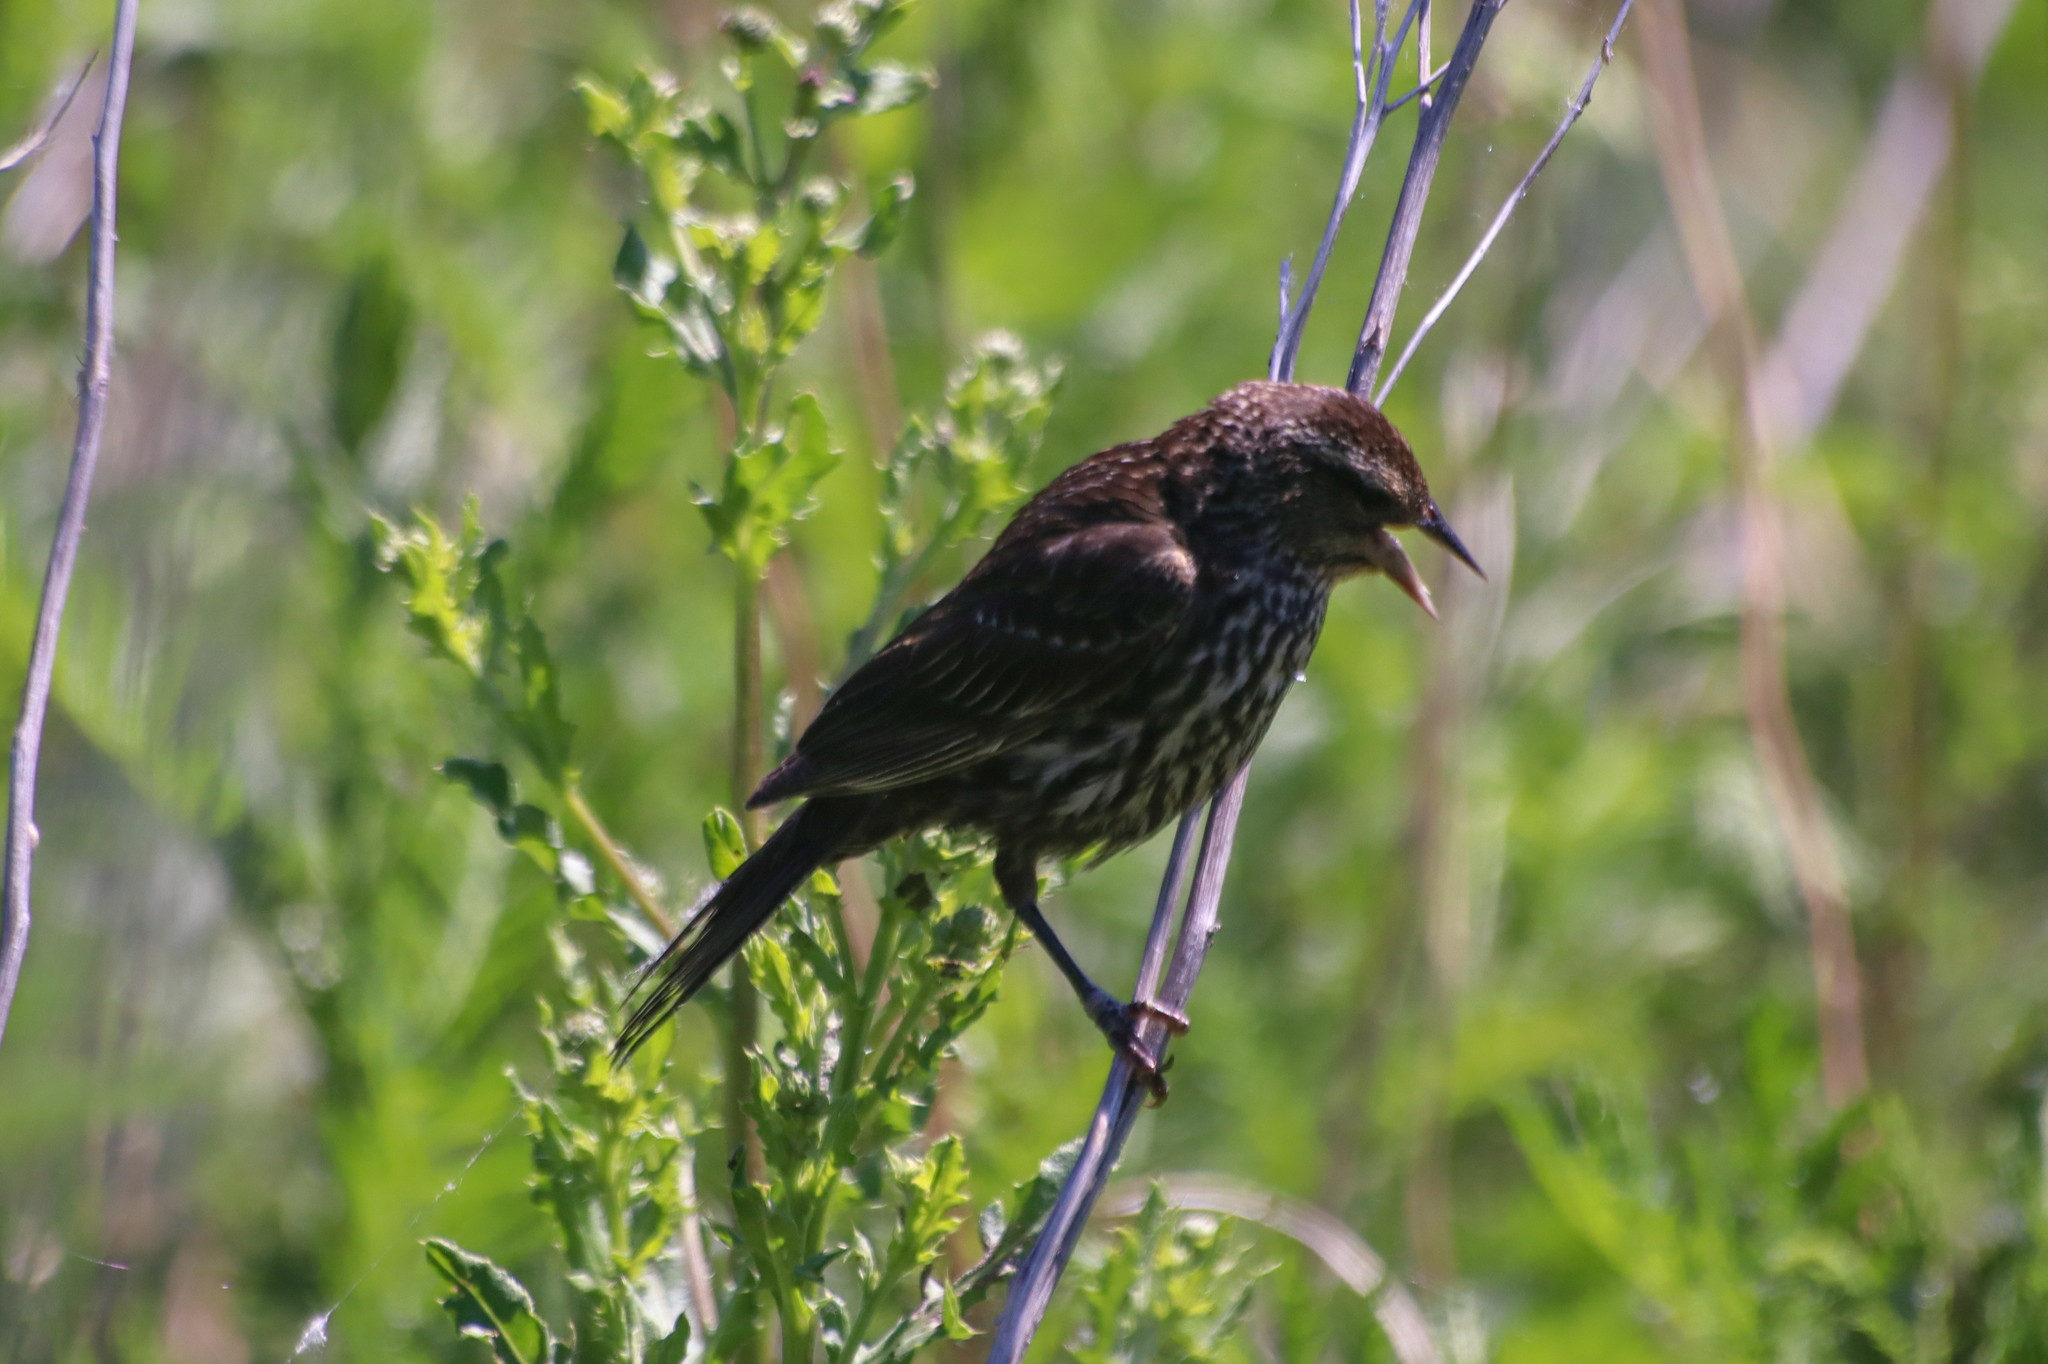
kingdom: Animalia
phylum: Chordata
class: Aves
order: Passeriformes
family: Icteridae
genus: Agelaius
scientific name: Agelaius phoeniceus
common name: Red-winged blackbird
